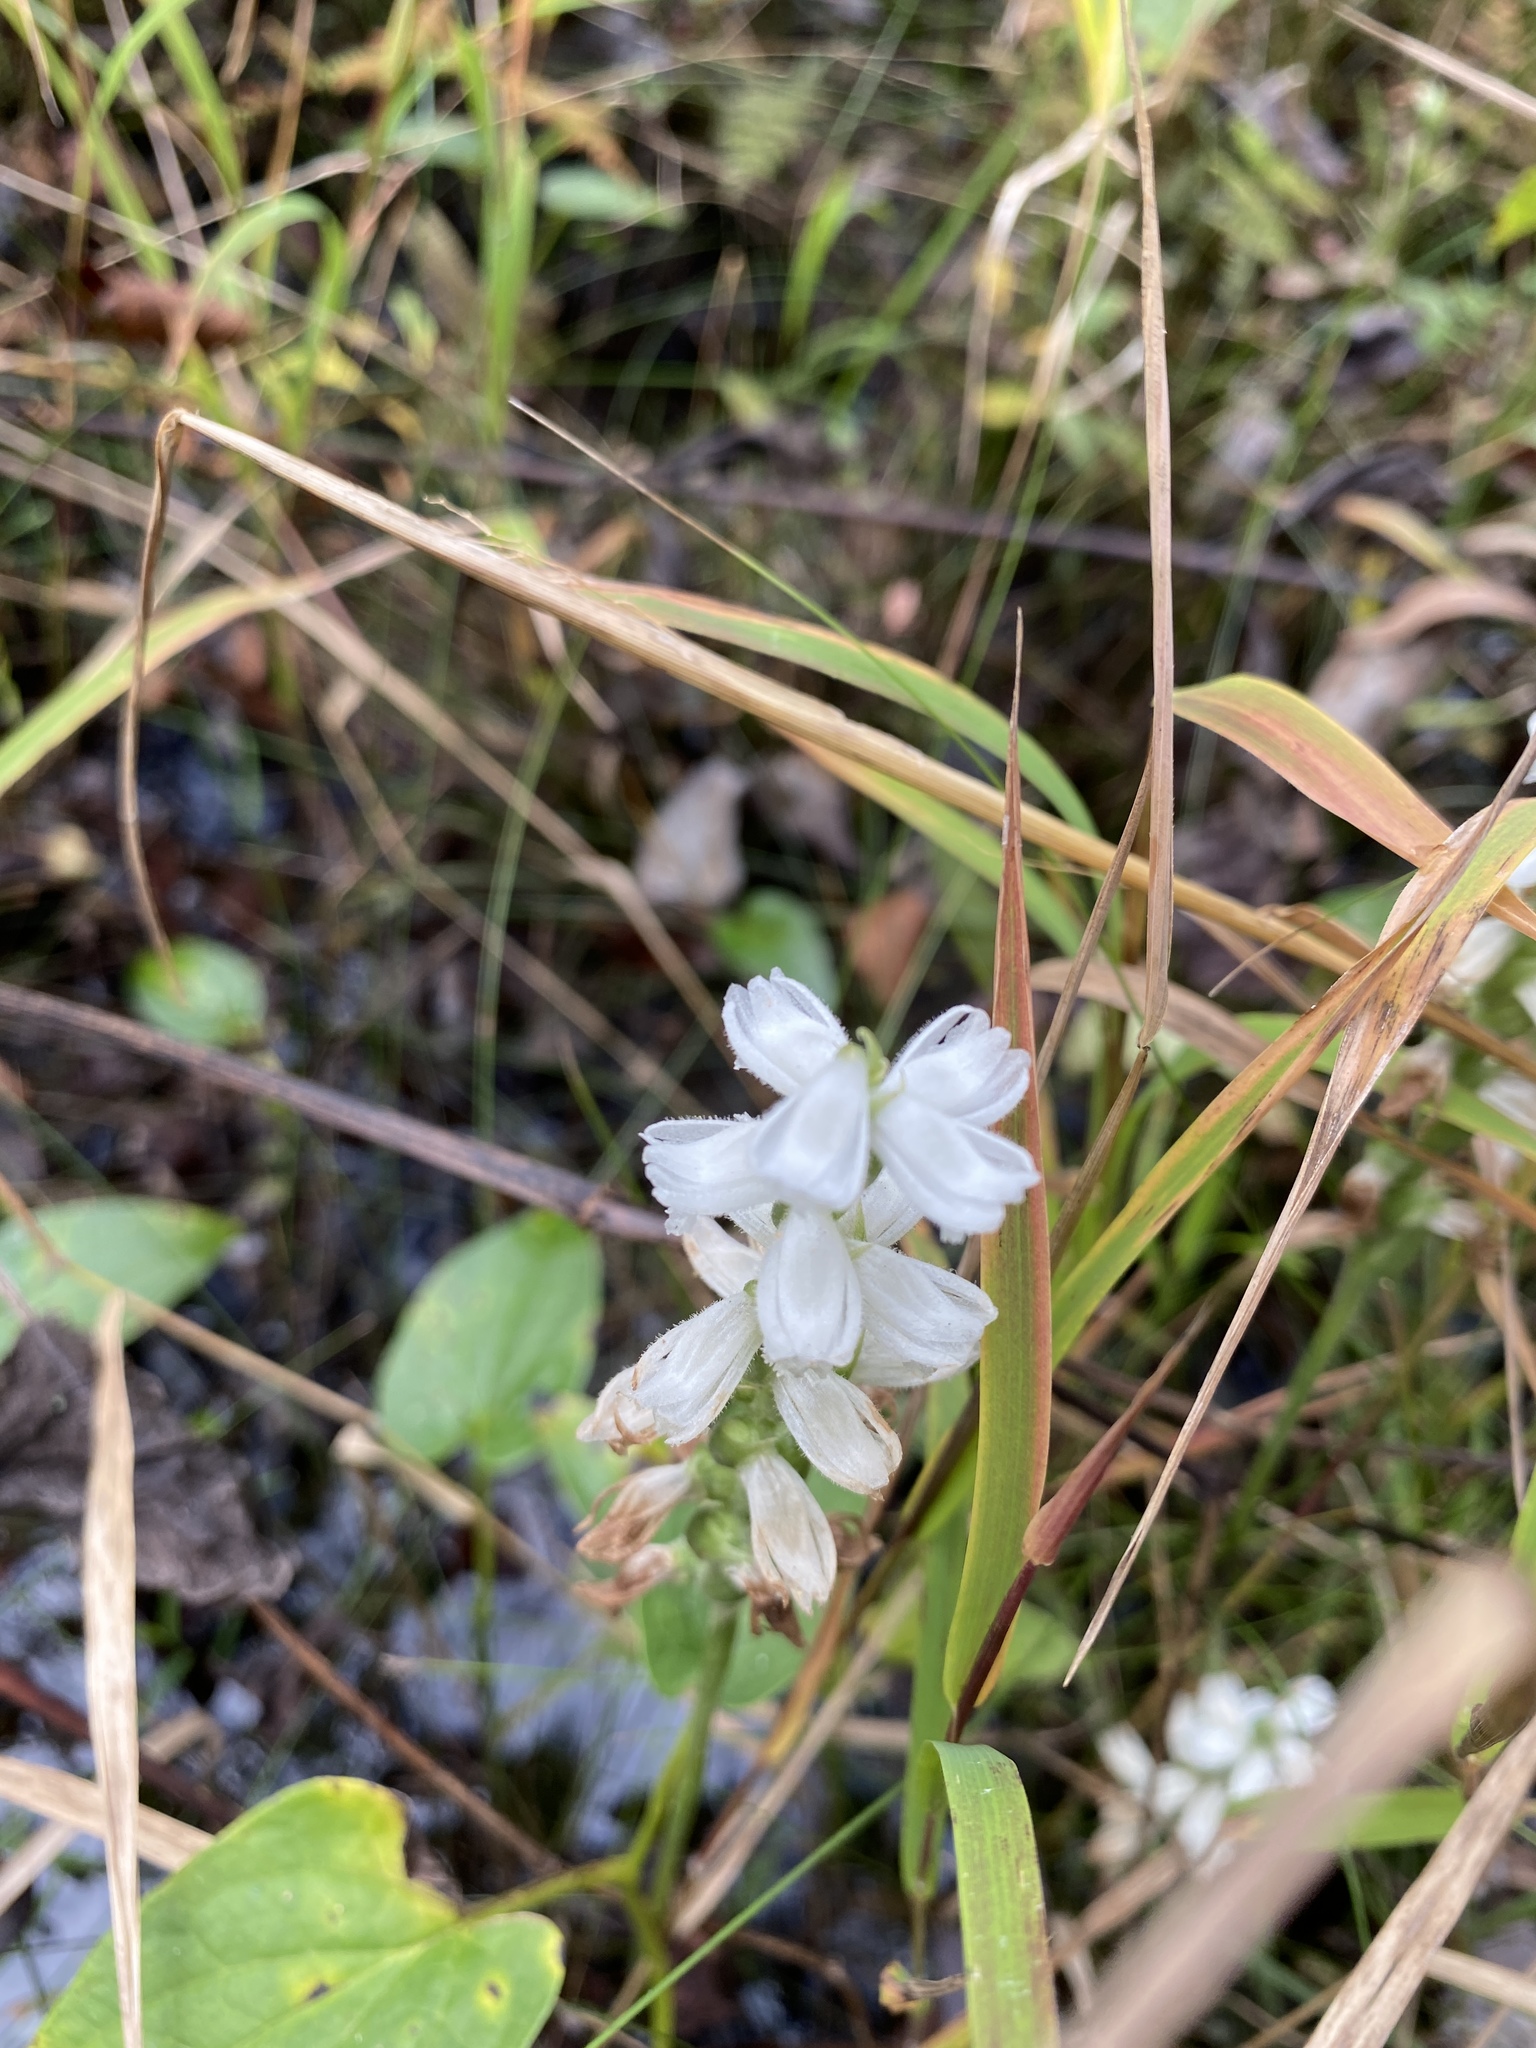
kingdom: Plantae
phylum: Tracheophyta
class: Liliopsida
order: Asparagales
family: Orchidaceae
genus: Spiranthes
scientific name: Spiranthes cernua
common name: Dropping ladies'-tresses
